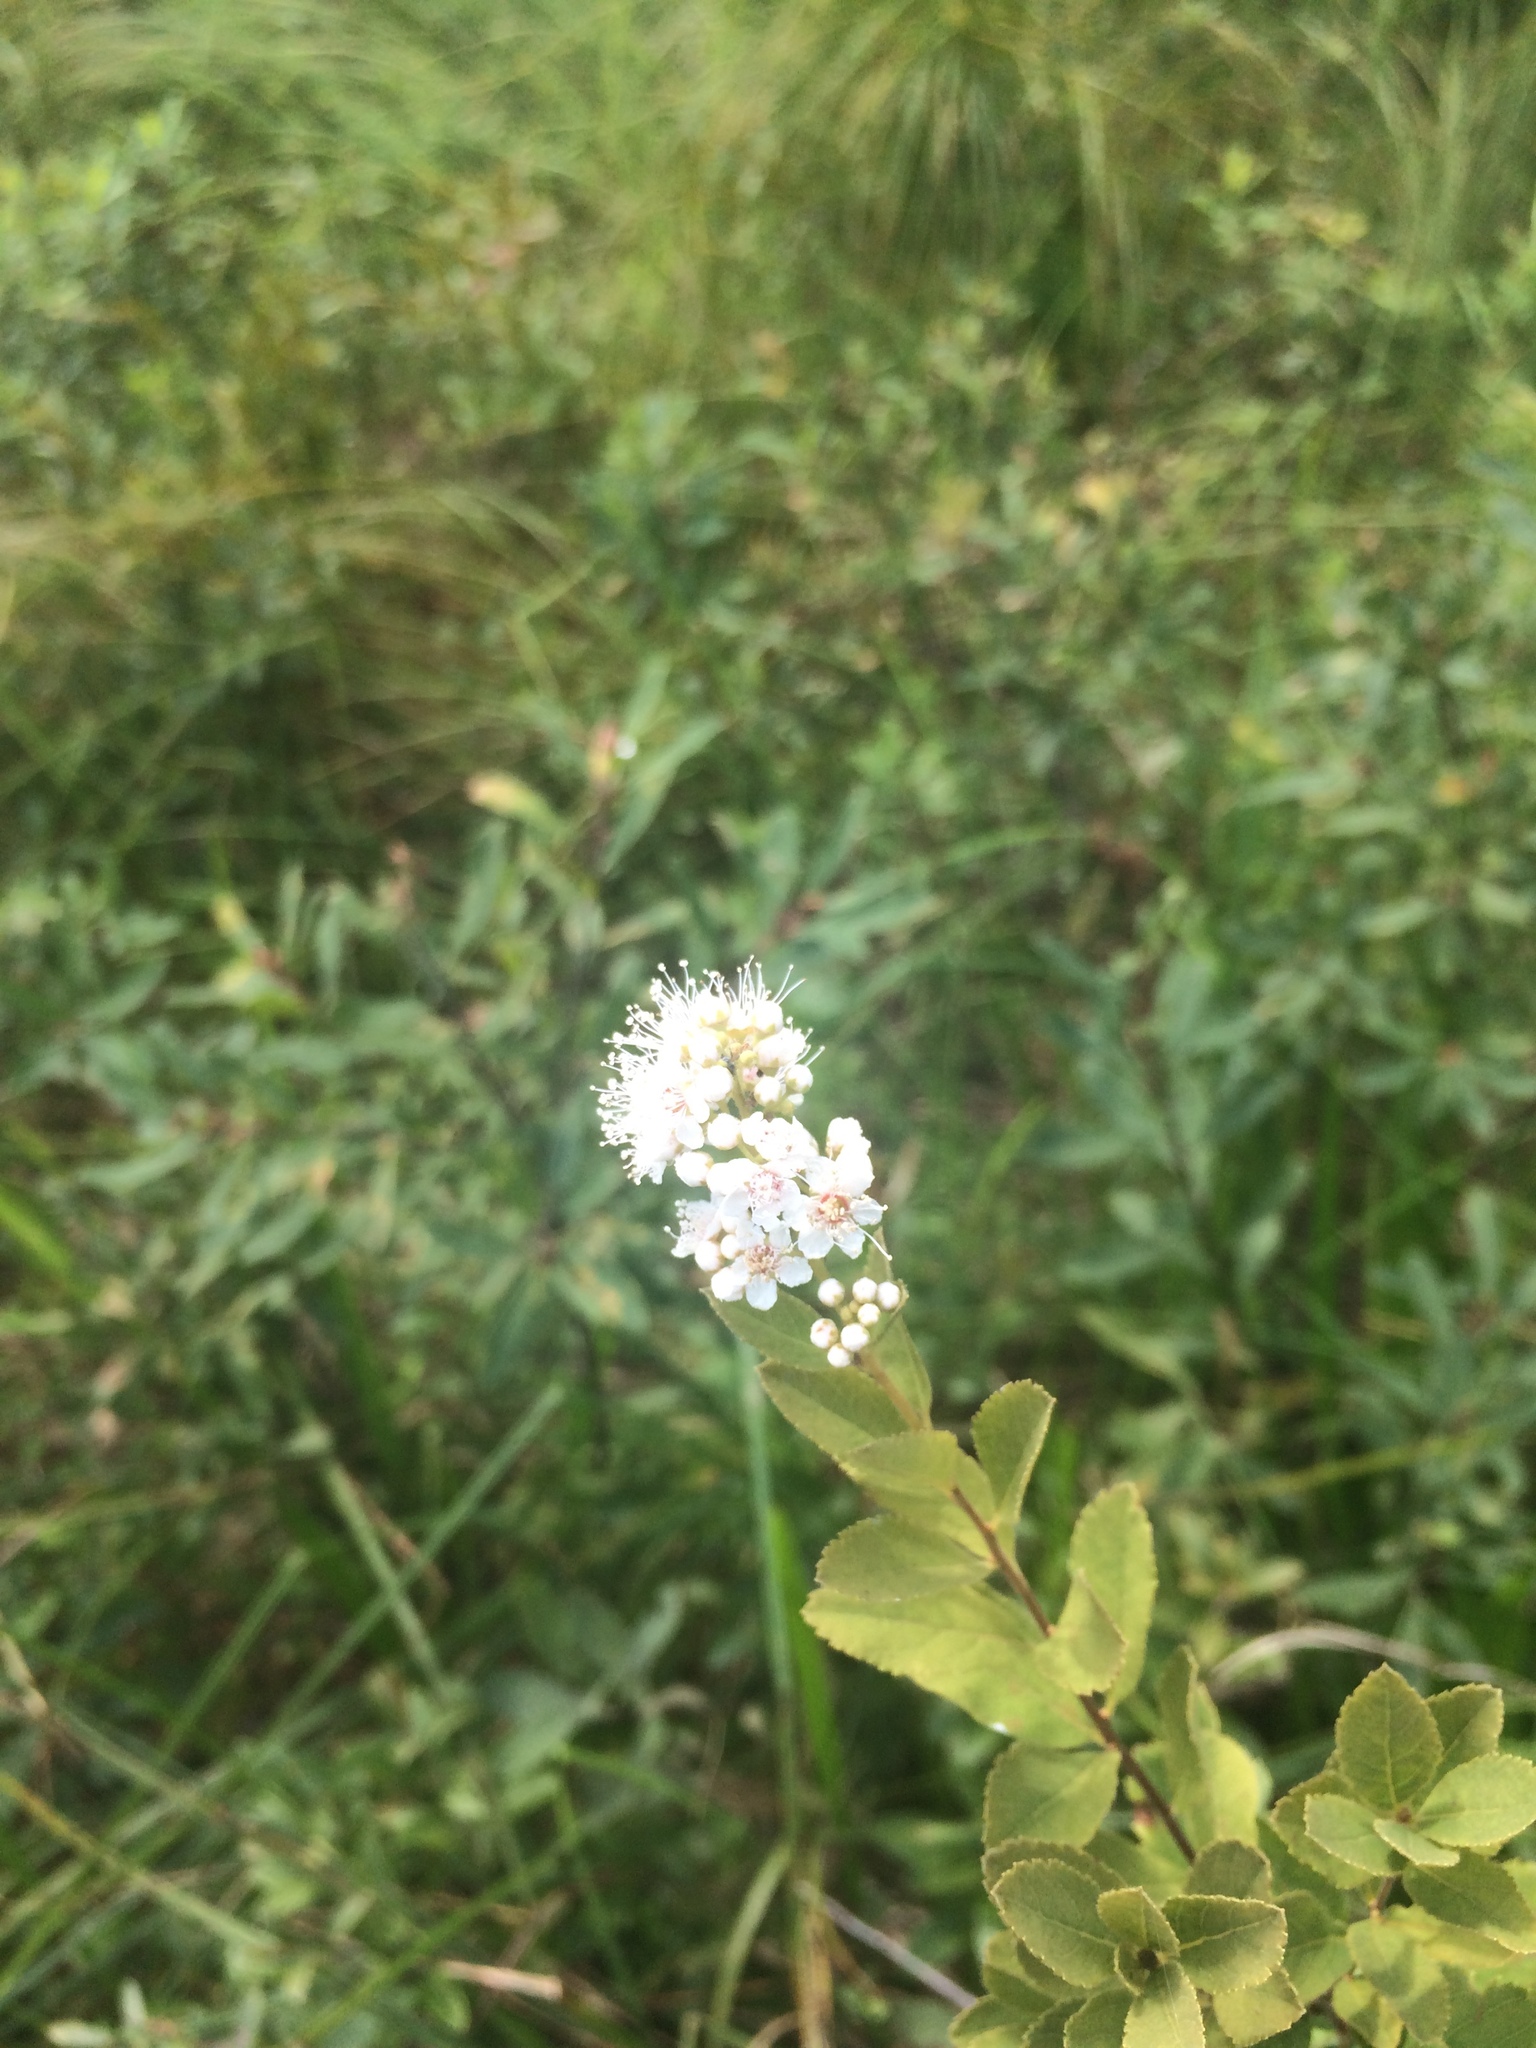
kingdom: Plantae
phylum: Tracheophyta
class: Magnoliopsida
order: Rosales
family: Rosaceae
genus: Spiraea
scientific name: Spiraea alba
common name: Pale bridewort
